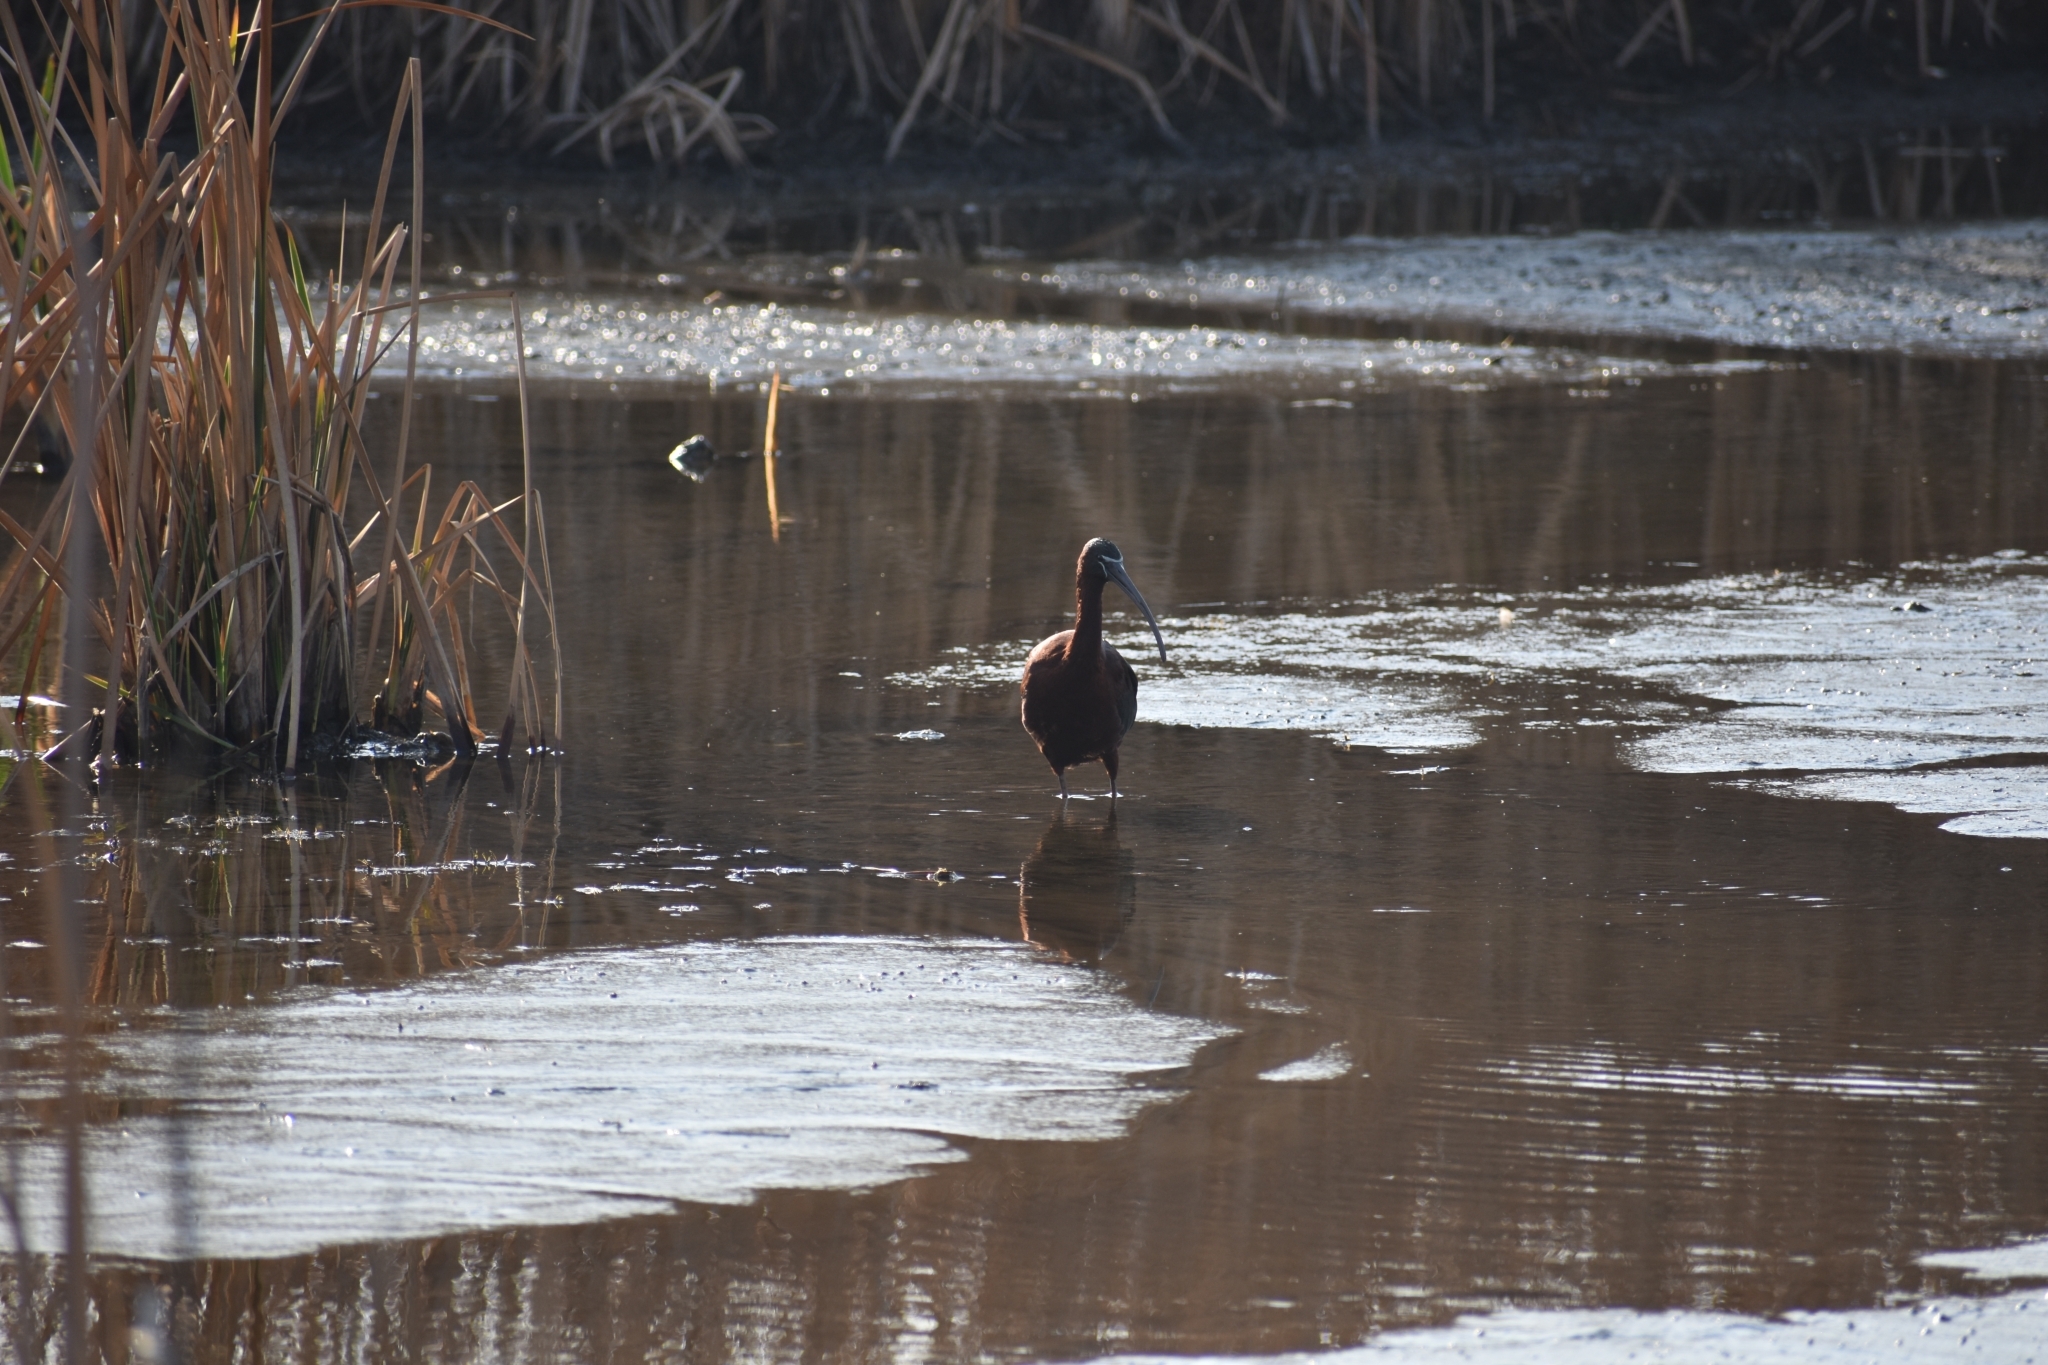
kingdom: Animalia
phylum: Chordata
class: Aves
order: Pelecaniformes
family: Threskiornithidae
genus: Plegadis
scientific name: Plegadis falcinellus
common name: Glossy ibis
